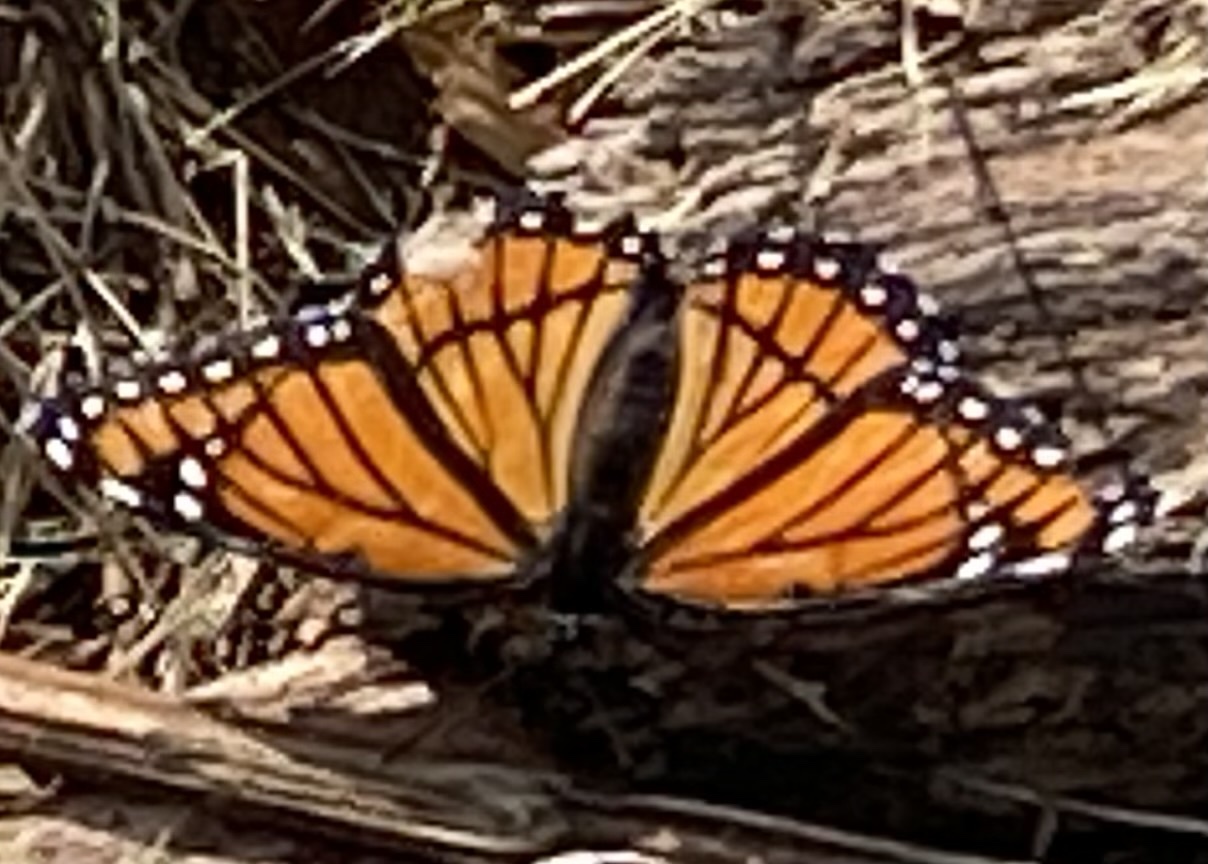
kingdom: Animalia
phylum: Arthropoda
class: Insecta
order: Lepidoptera
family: Nymphalidae
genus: Limenitis
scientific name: Limenitis archippus
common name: Viceroy
